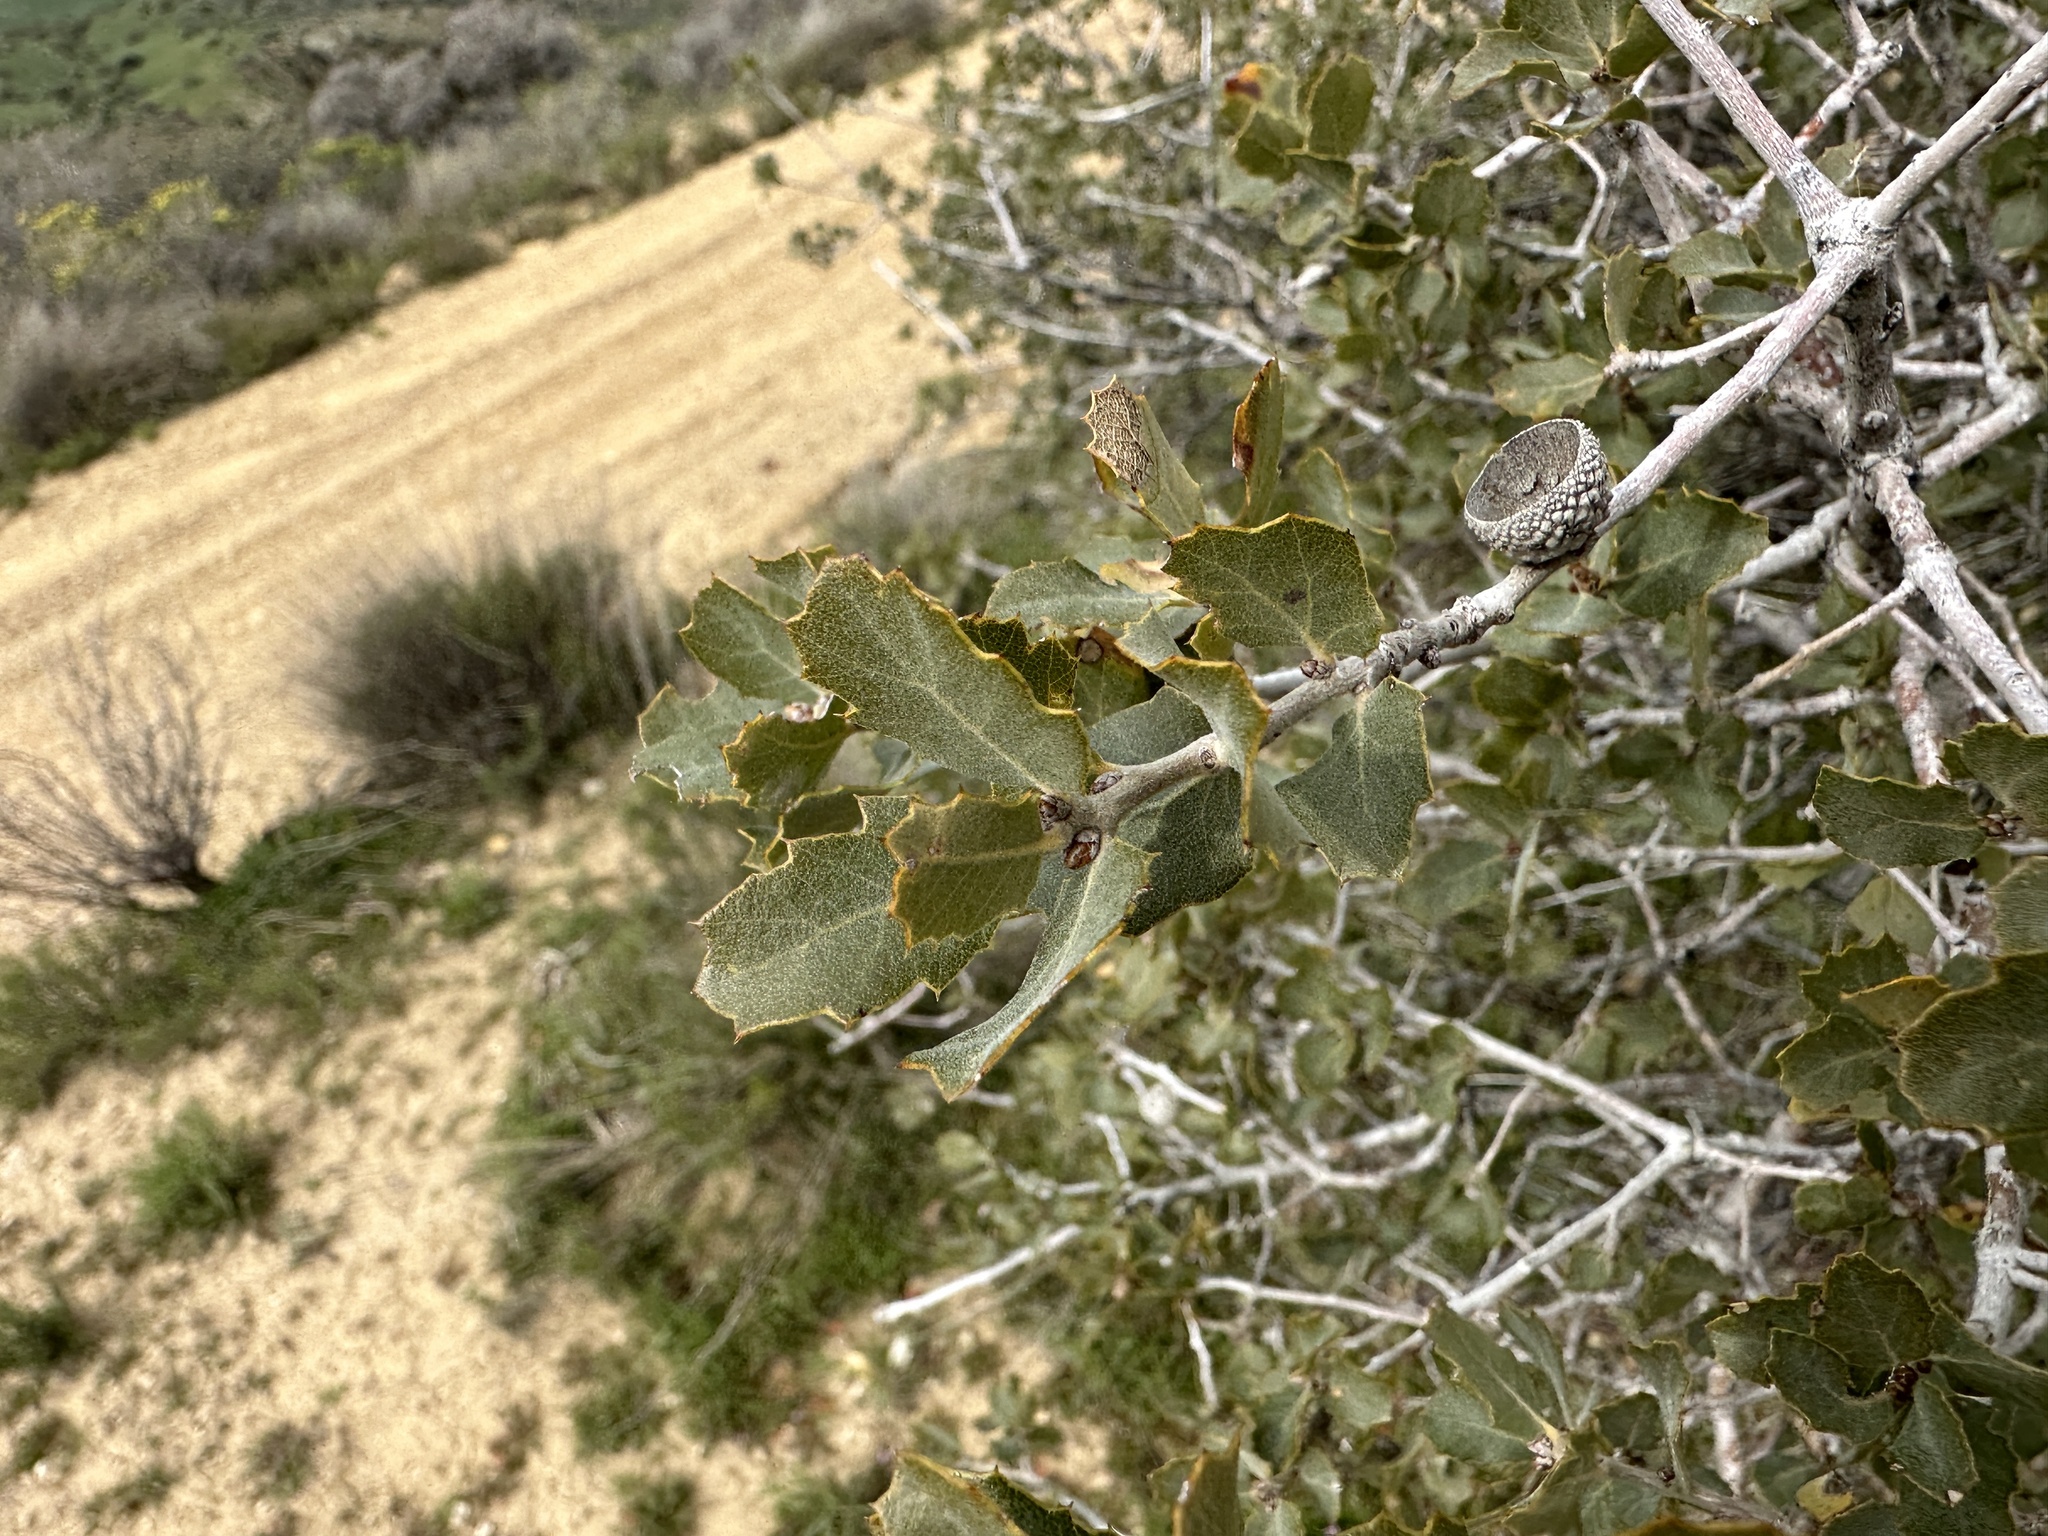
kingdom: Plantae
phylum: Tracheophyta
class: Magnoliopsida
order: Fagales
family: Fagaceae
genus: Quercus
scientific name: Quercus john-tuckeri
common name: Tucker's oak
